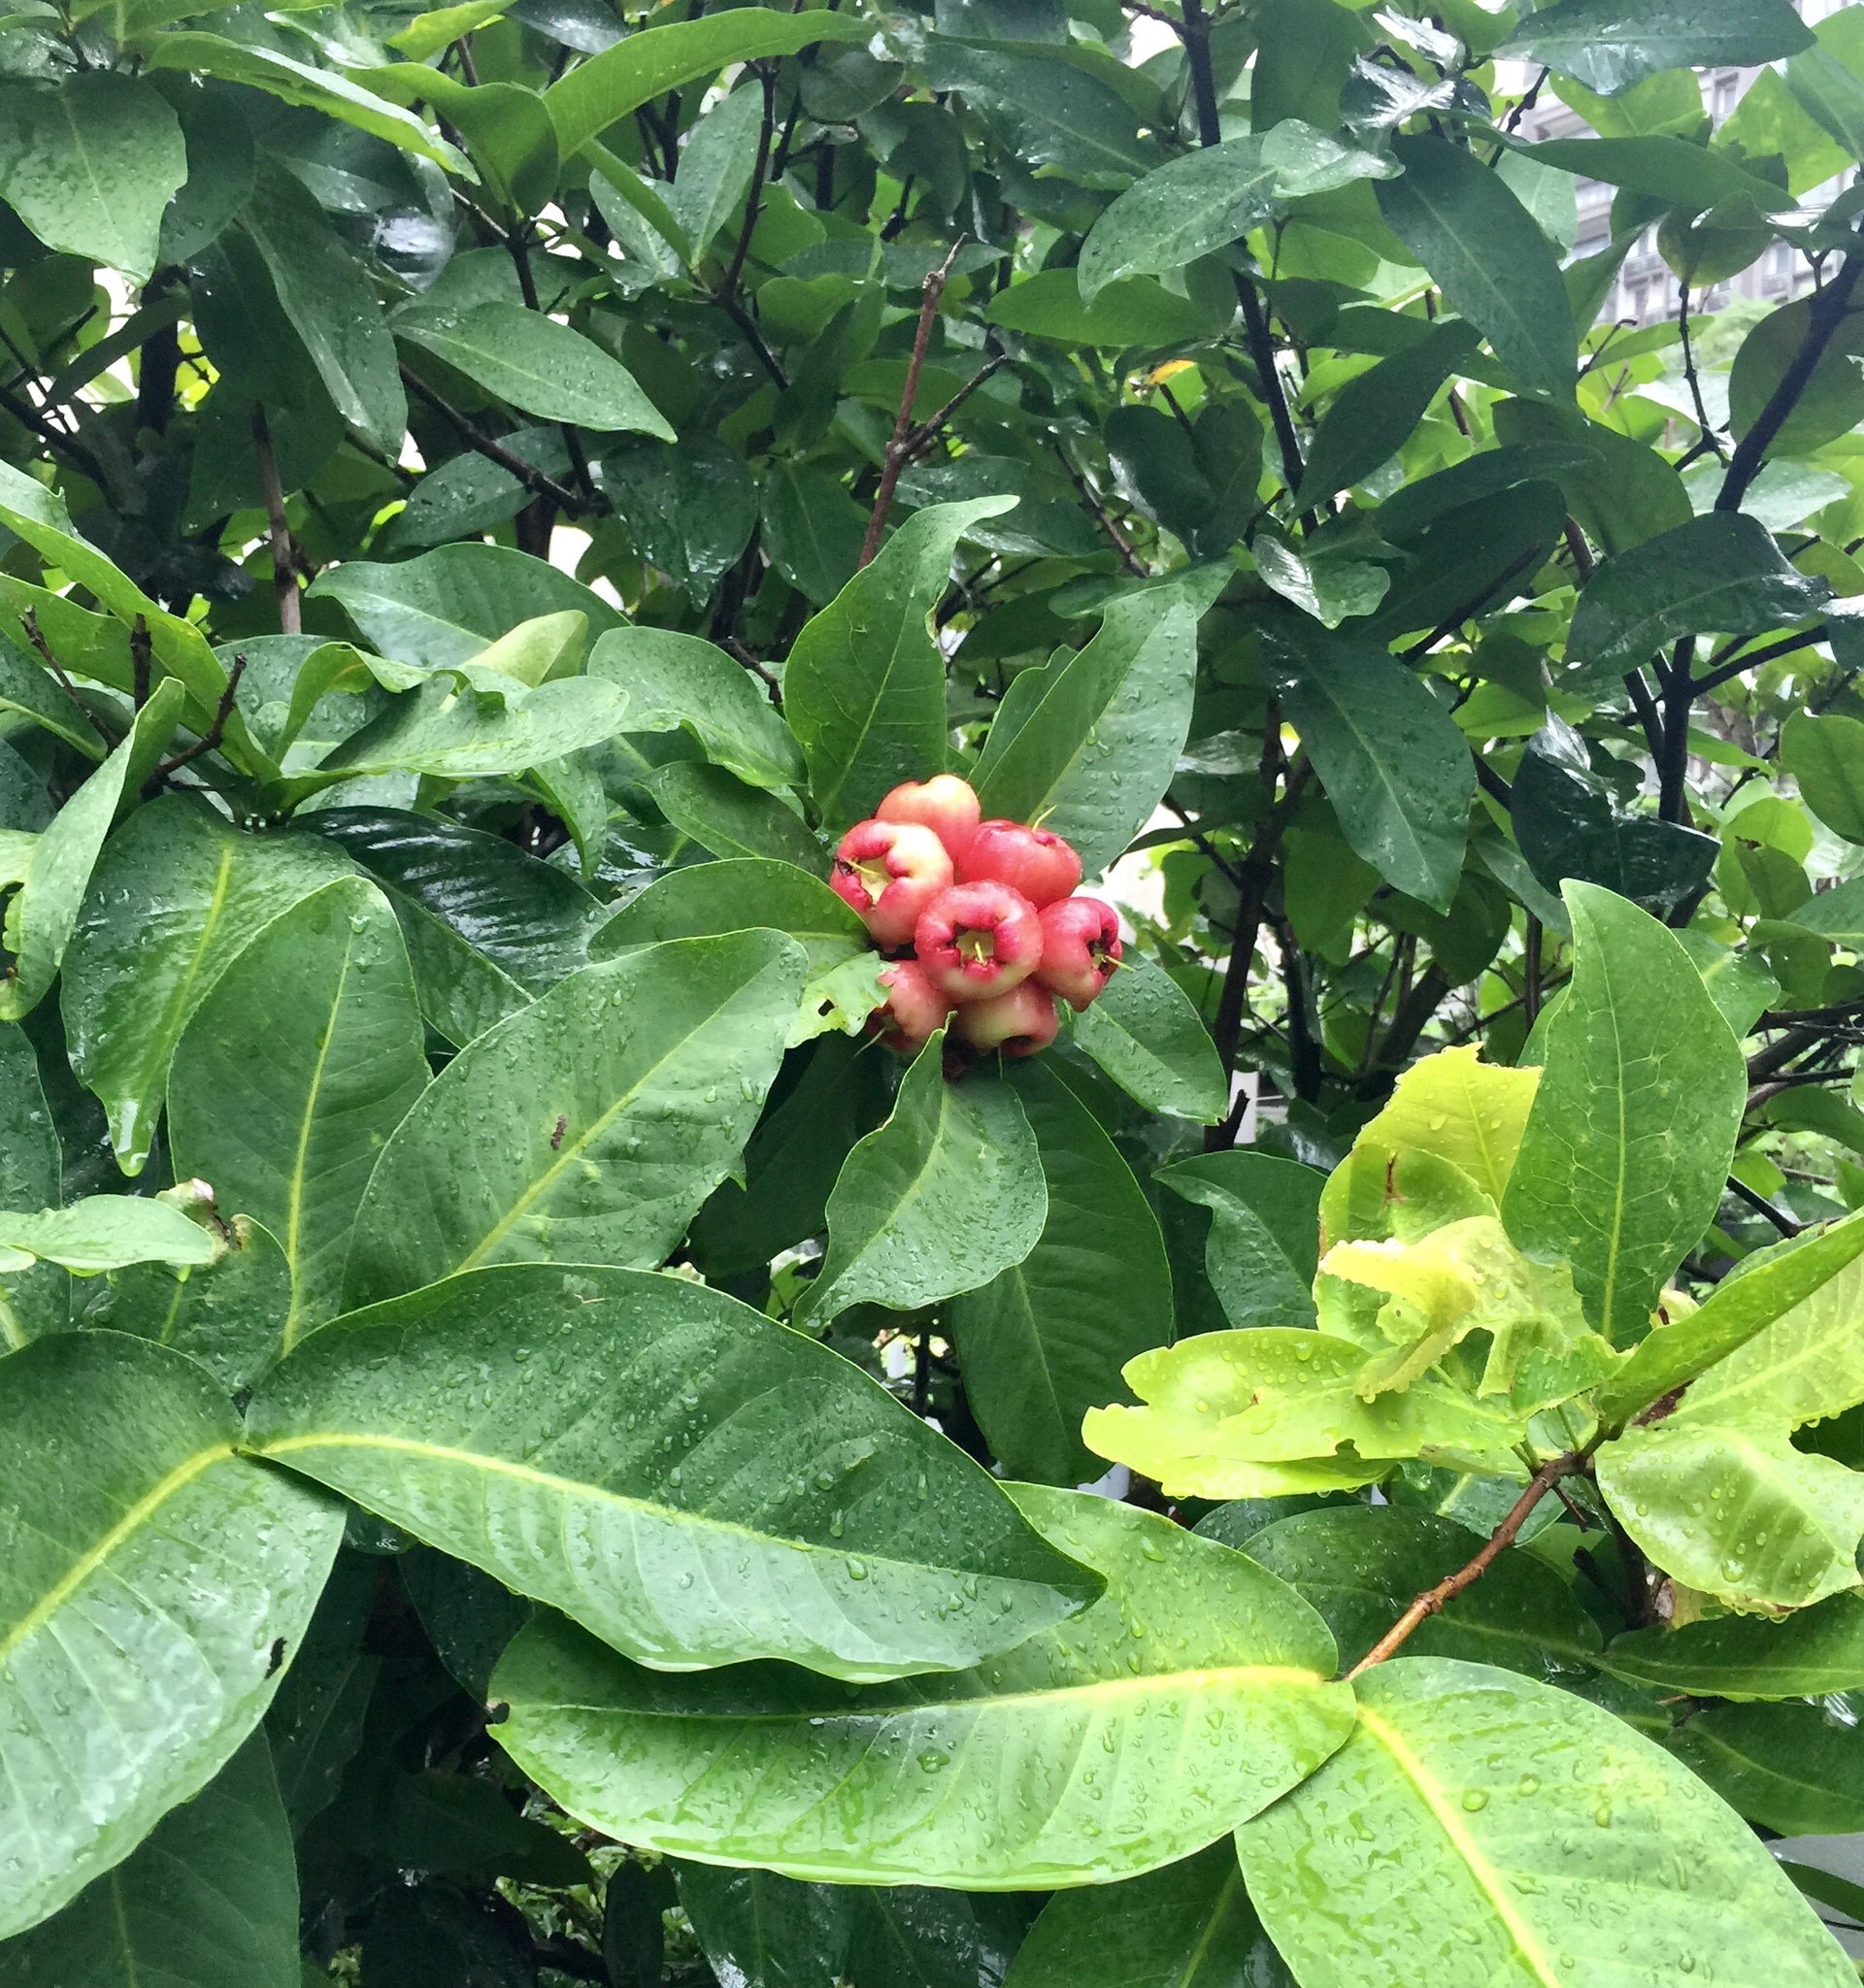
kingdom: Plantae
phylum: Tracheophyta
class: Magnoliopsida
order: Myrtales
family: Myrtaceae
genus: Syzygium
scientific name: Syzygium samarangense
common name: Semarang rose-apple
